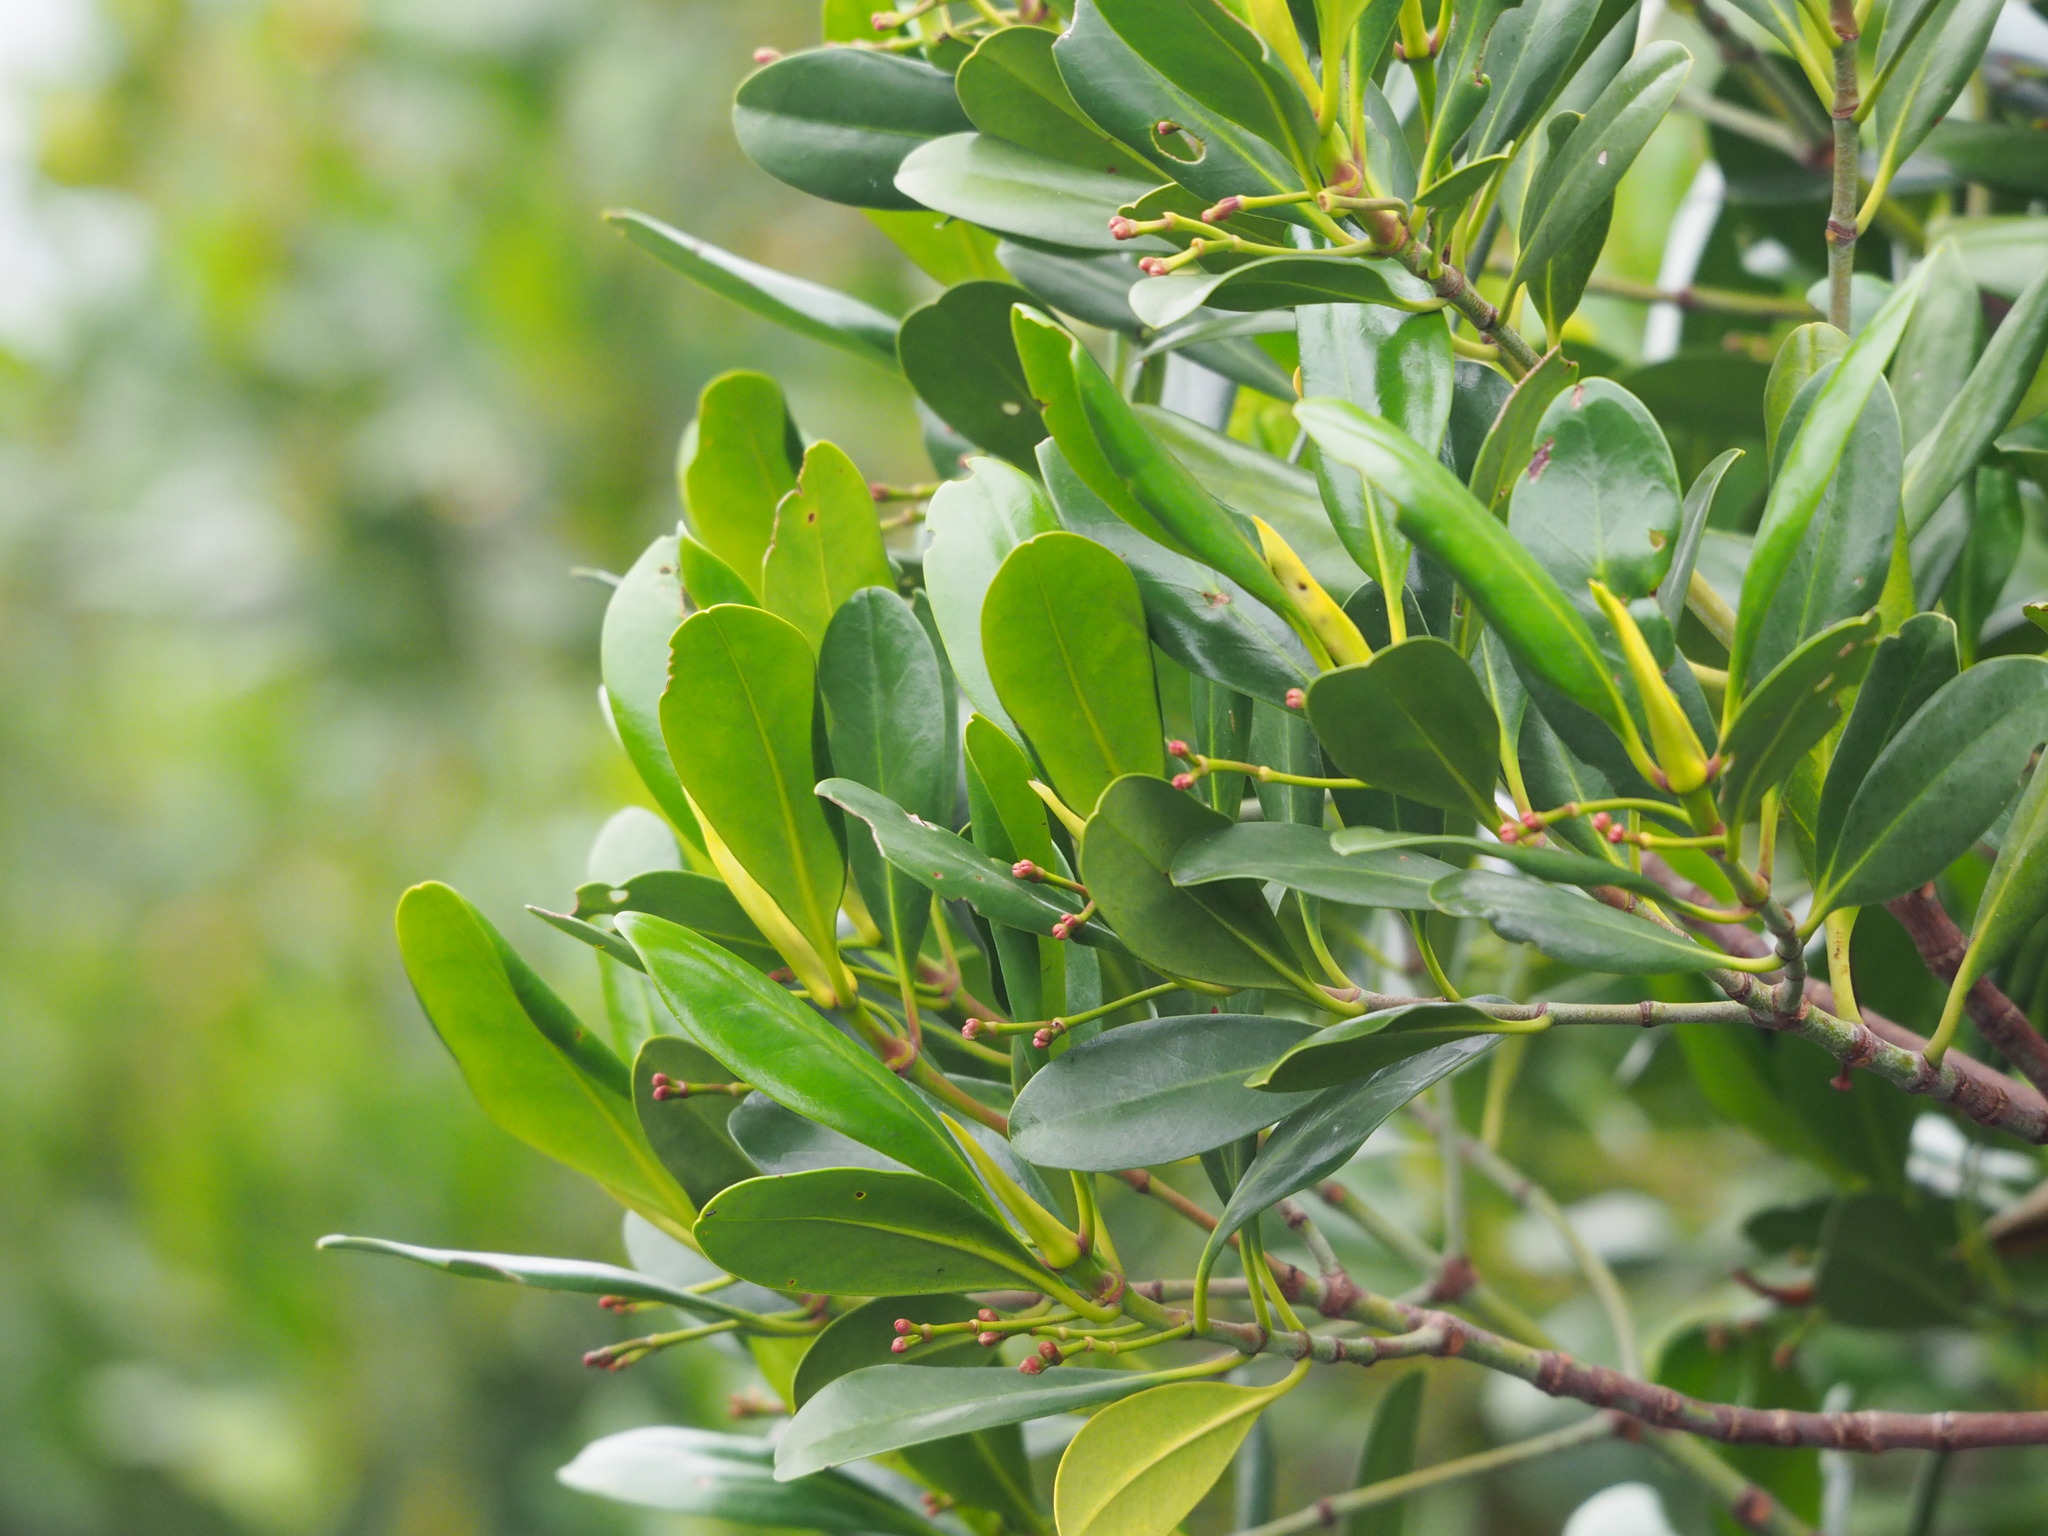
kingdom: Plantae
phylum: Tracheophyta
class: Magnoliopsida
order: Malpighiales
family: Rhizophoraceae
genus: Kandelia
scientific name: Kandelia obovata
